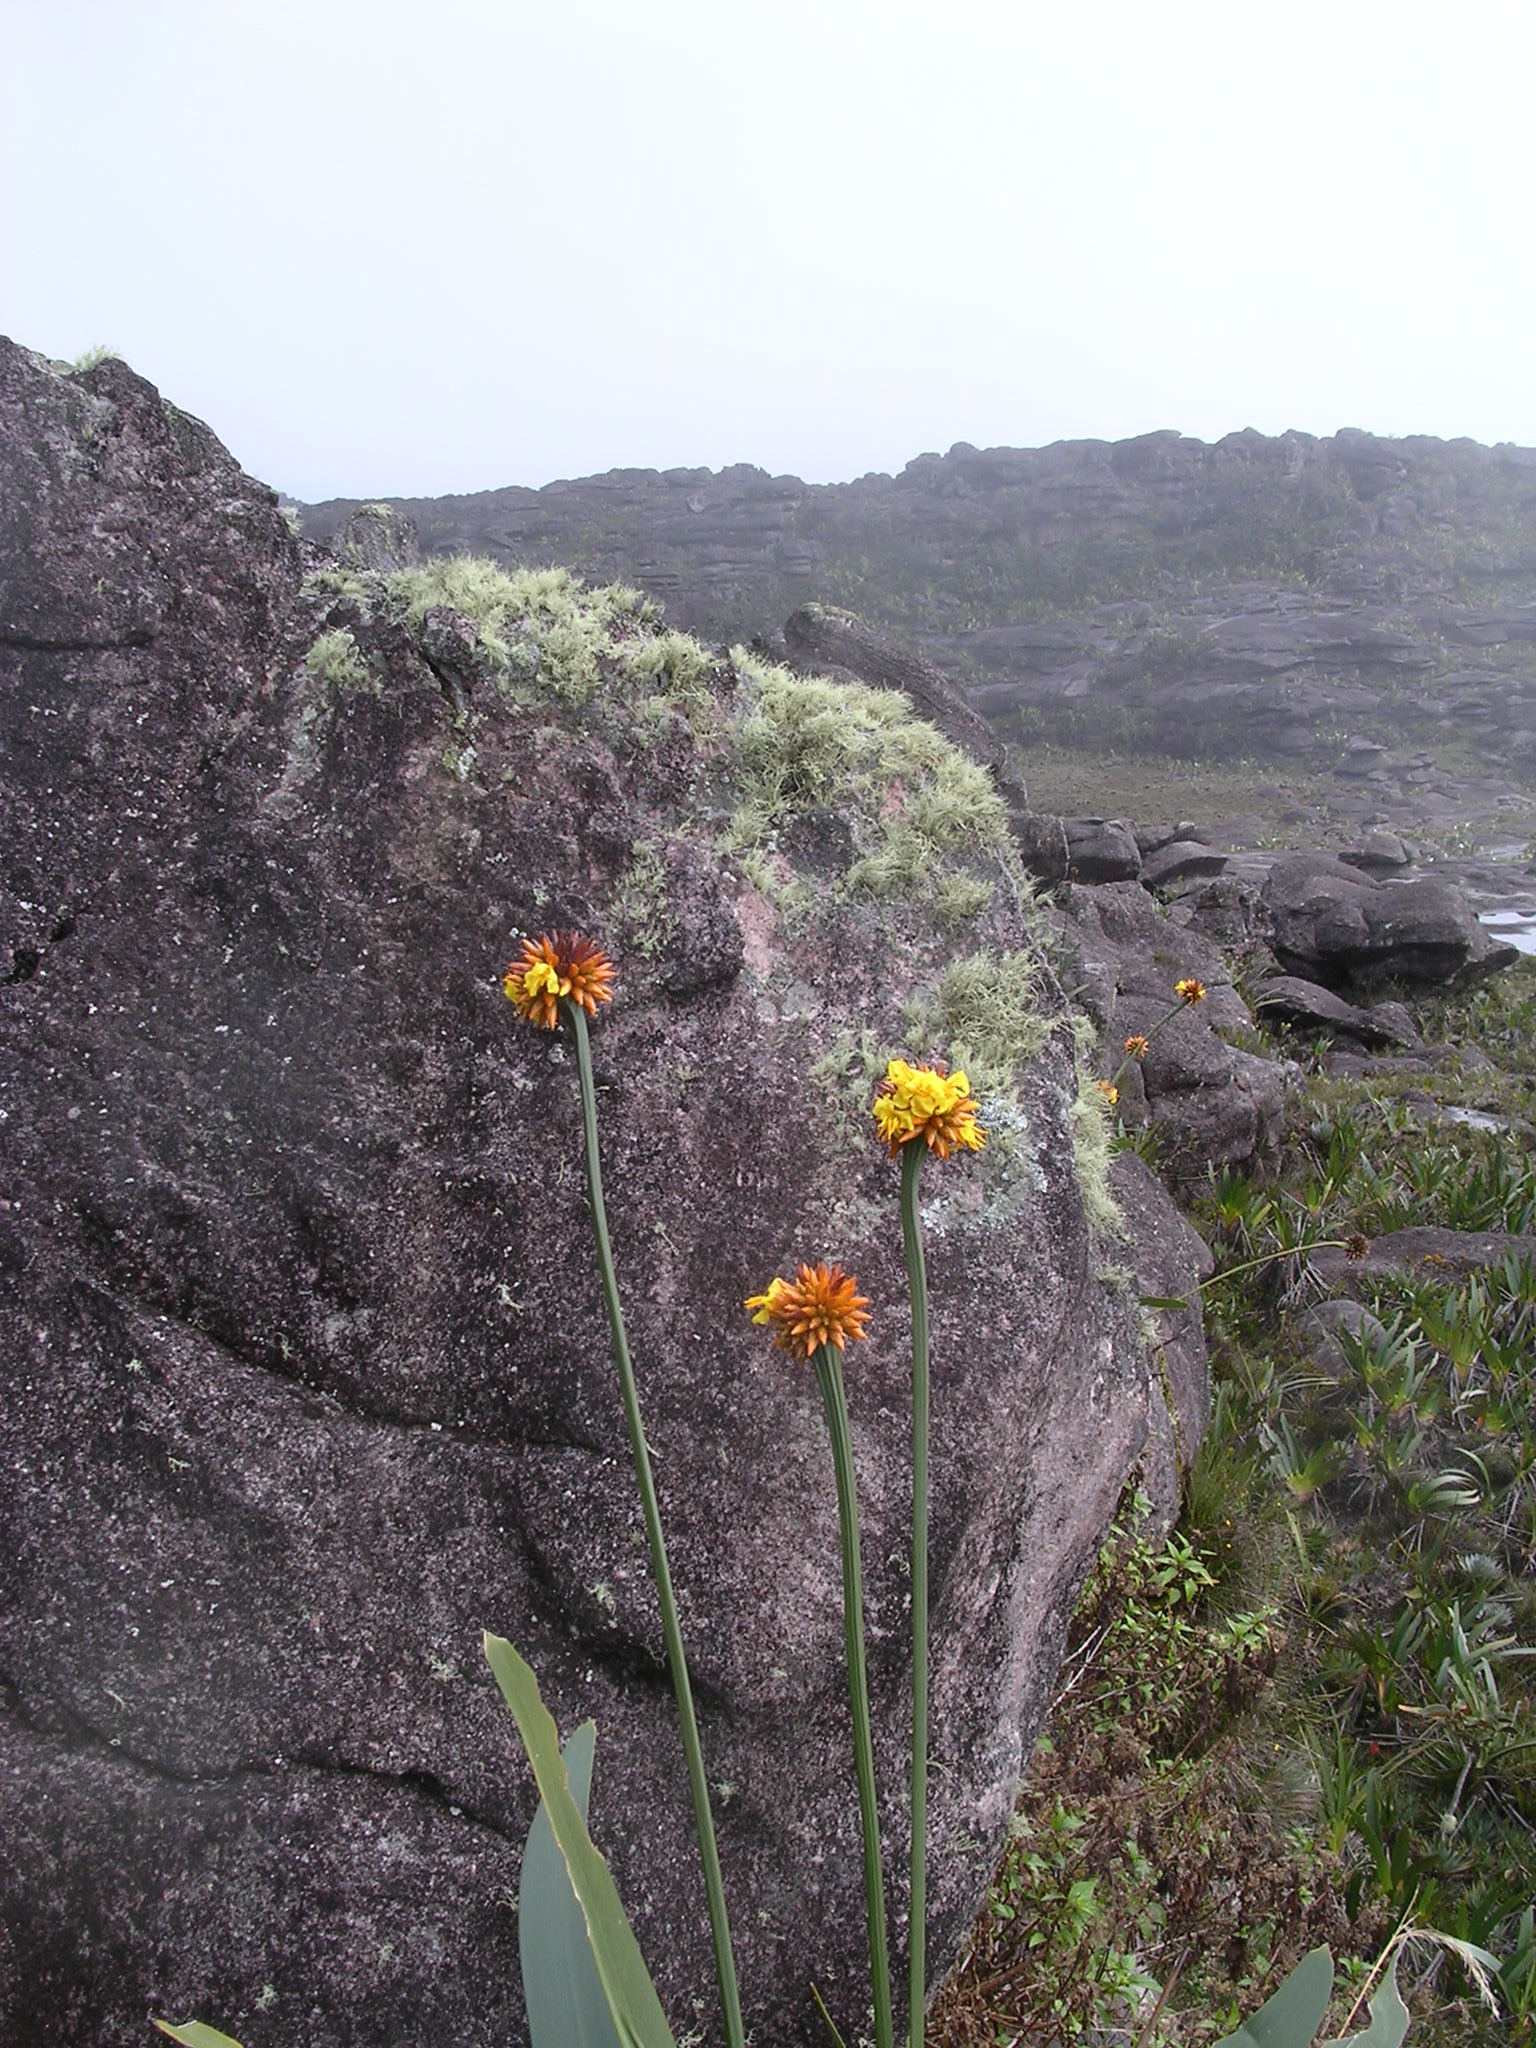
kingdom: Plantae
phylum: Tracheophyta
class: Liliopsida
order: Poales
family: Rapateaceae
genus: Stegolepis
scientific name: Stegolepis guianensis
